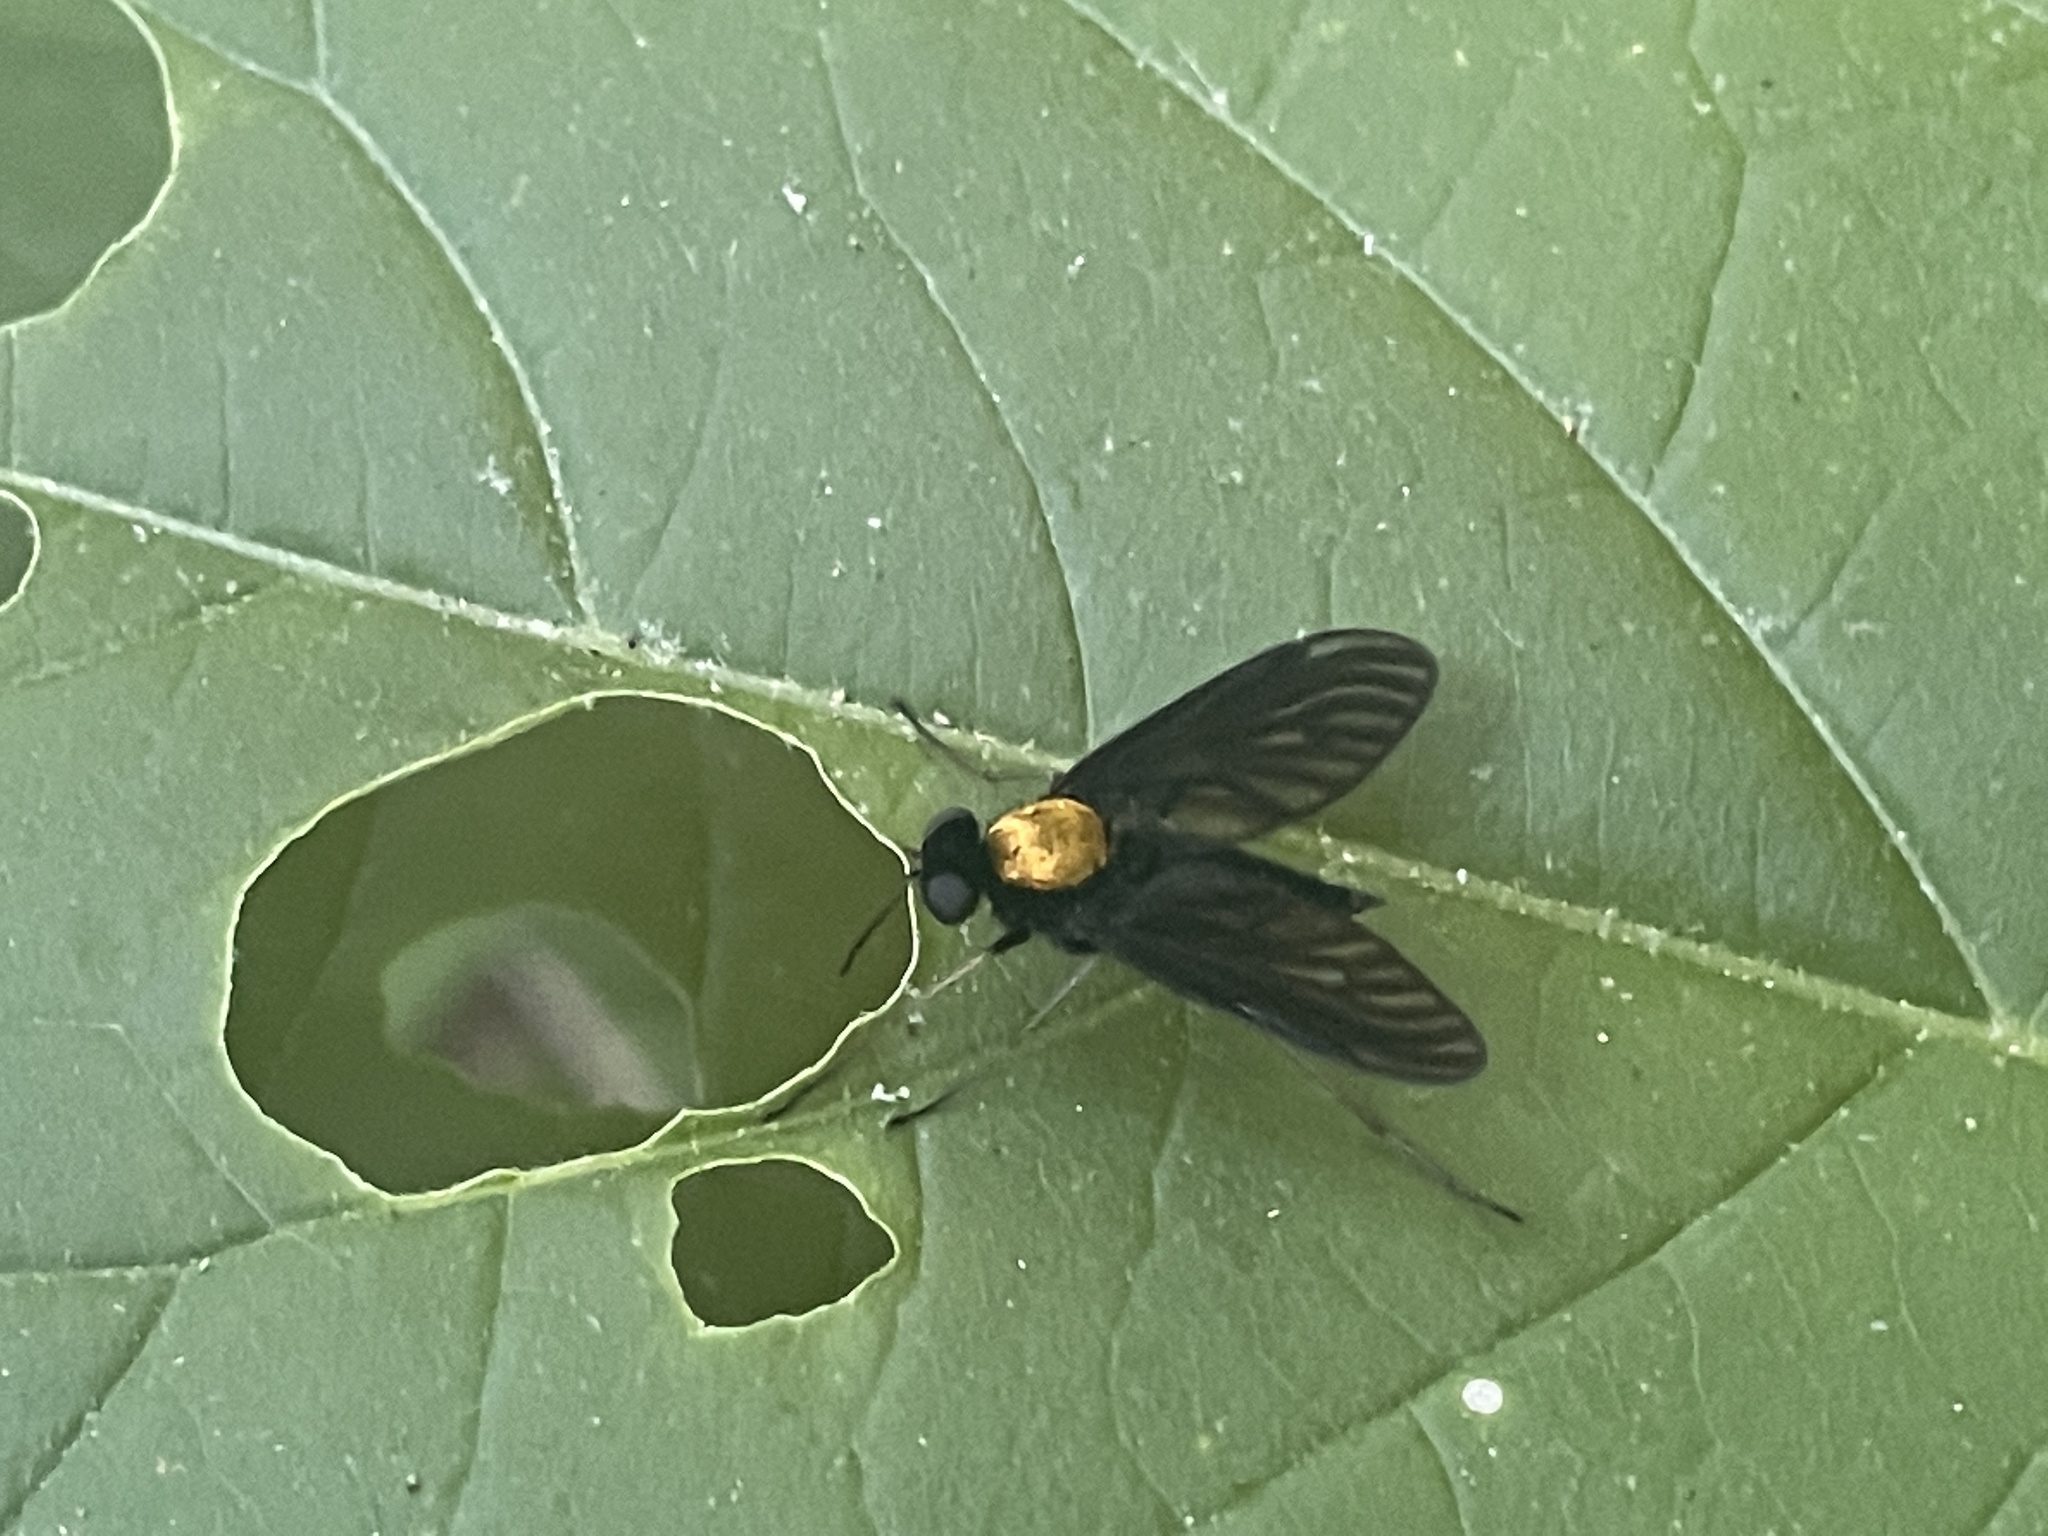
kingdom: Animalia
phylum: Arthropoda
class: Insecta
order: Diptera
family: Rhagionidae
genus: Chrysopilus
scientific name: Chrysopilus thoracicus
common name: Golden-backed snipe fly
